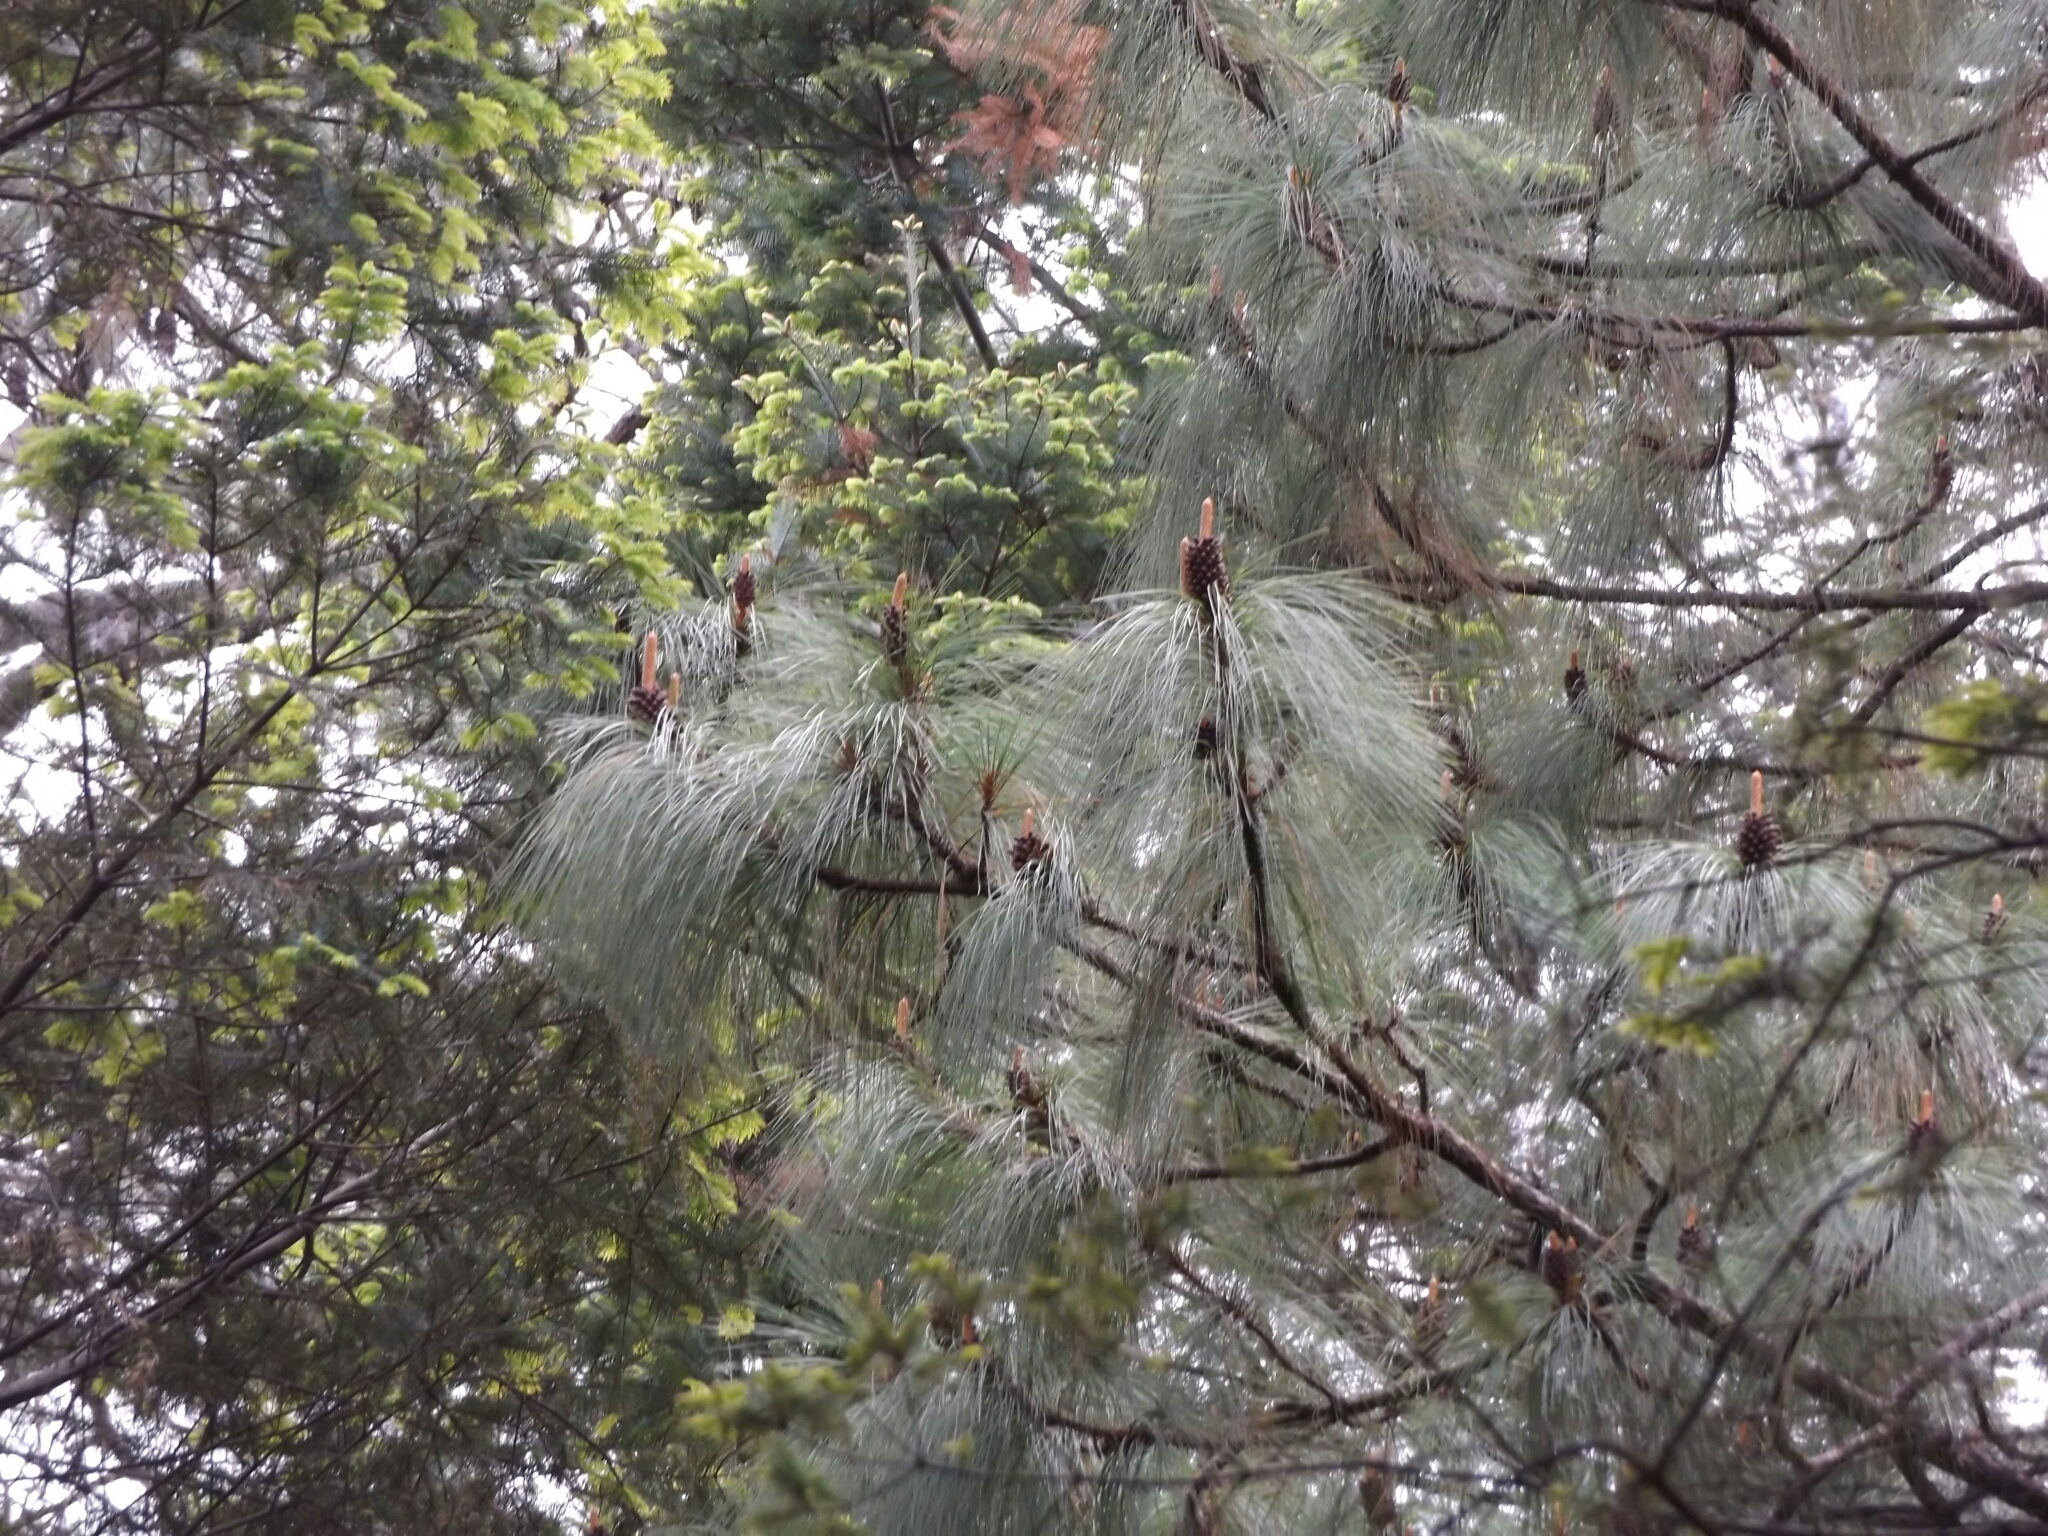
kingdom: Plantae
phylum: Tracheophyta
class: Pinopsida
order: Pinales
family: Pinaceae
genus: Pinus
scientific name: Pinus pseudostrobus
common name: False weymouth pine
